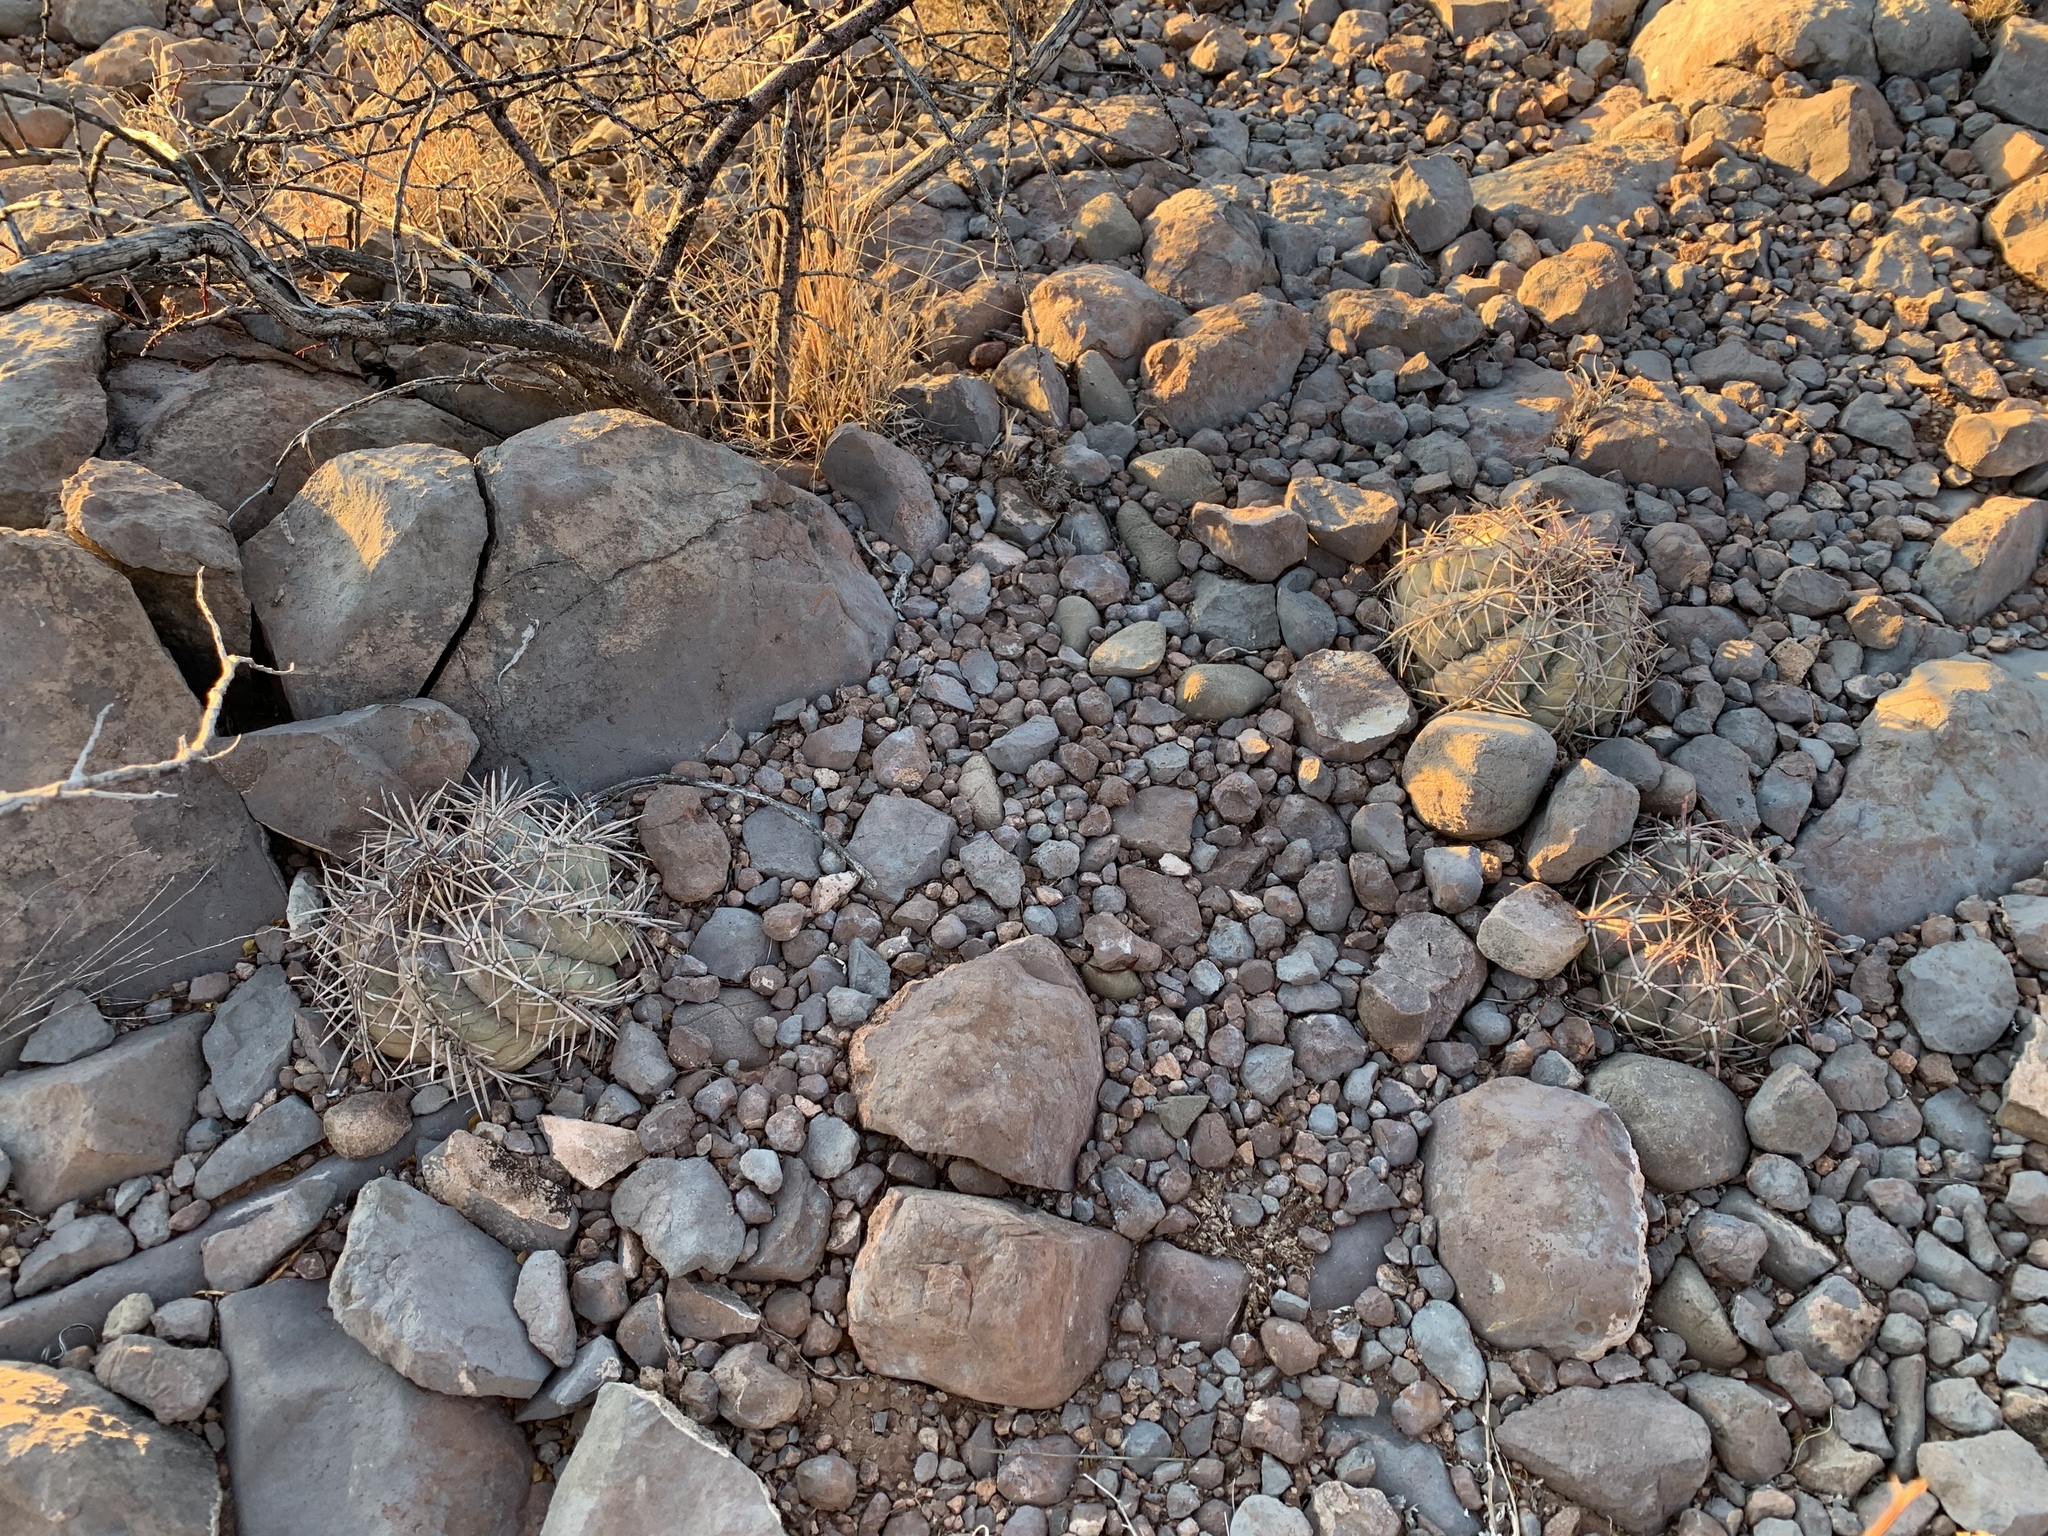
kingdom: Plantae
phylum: Tracheophyta
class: Magnoliopsida
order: Caryophyllales
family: Cactaceae
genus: Echinocactus
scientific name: Echinocactus horizonthalonius
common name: Devilshead
